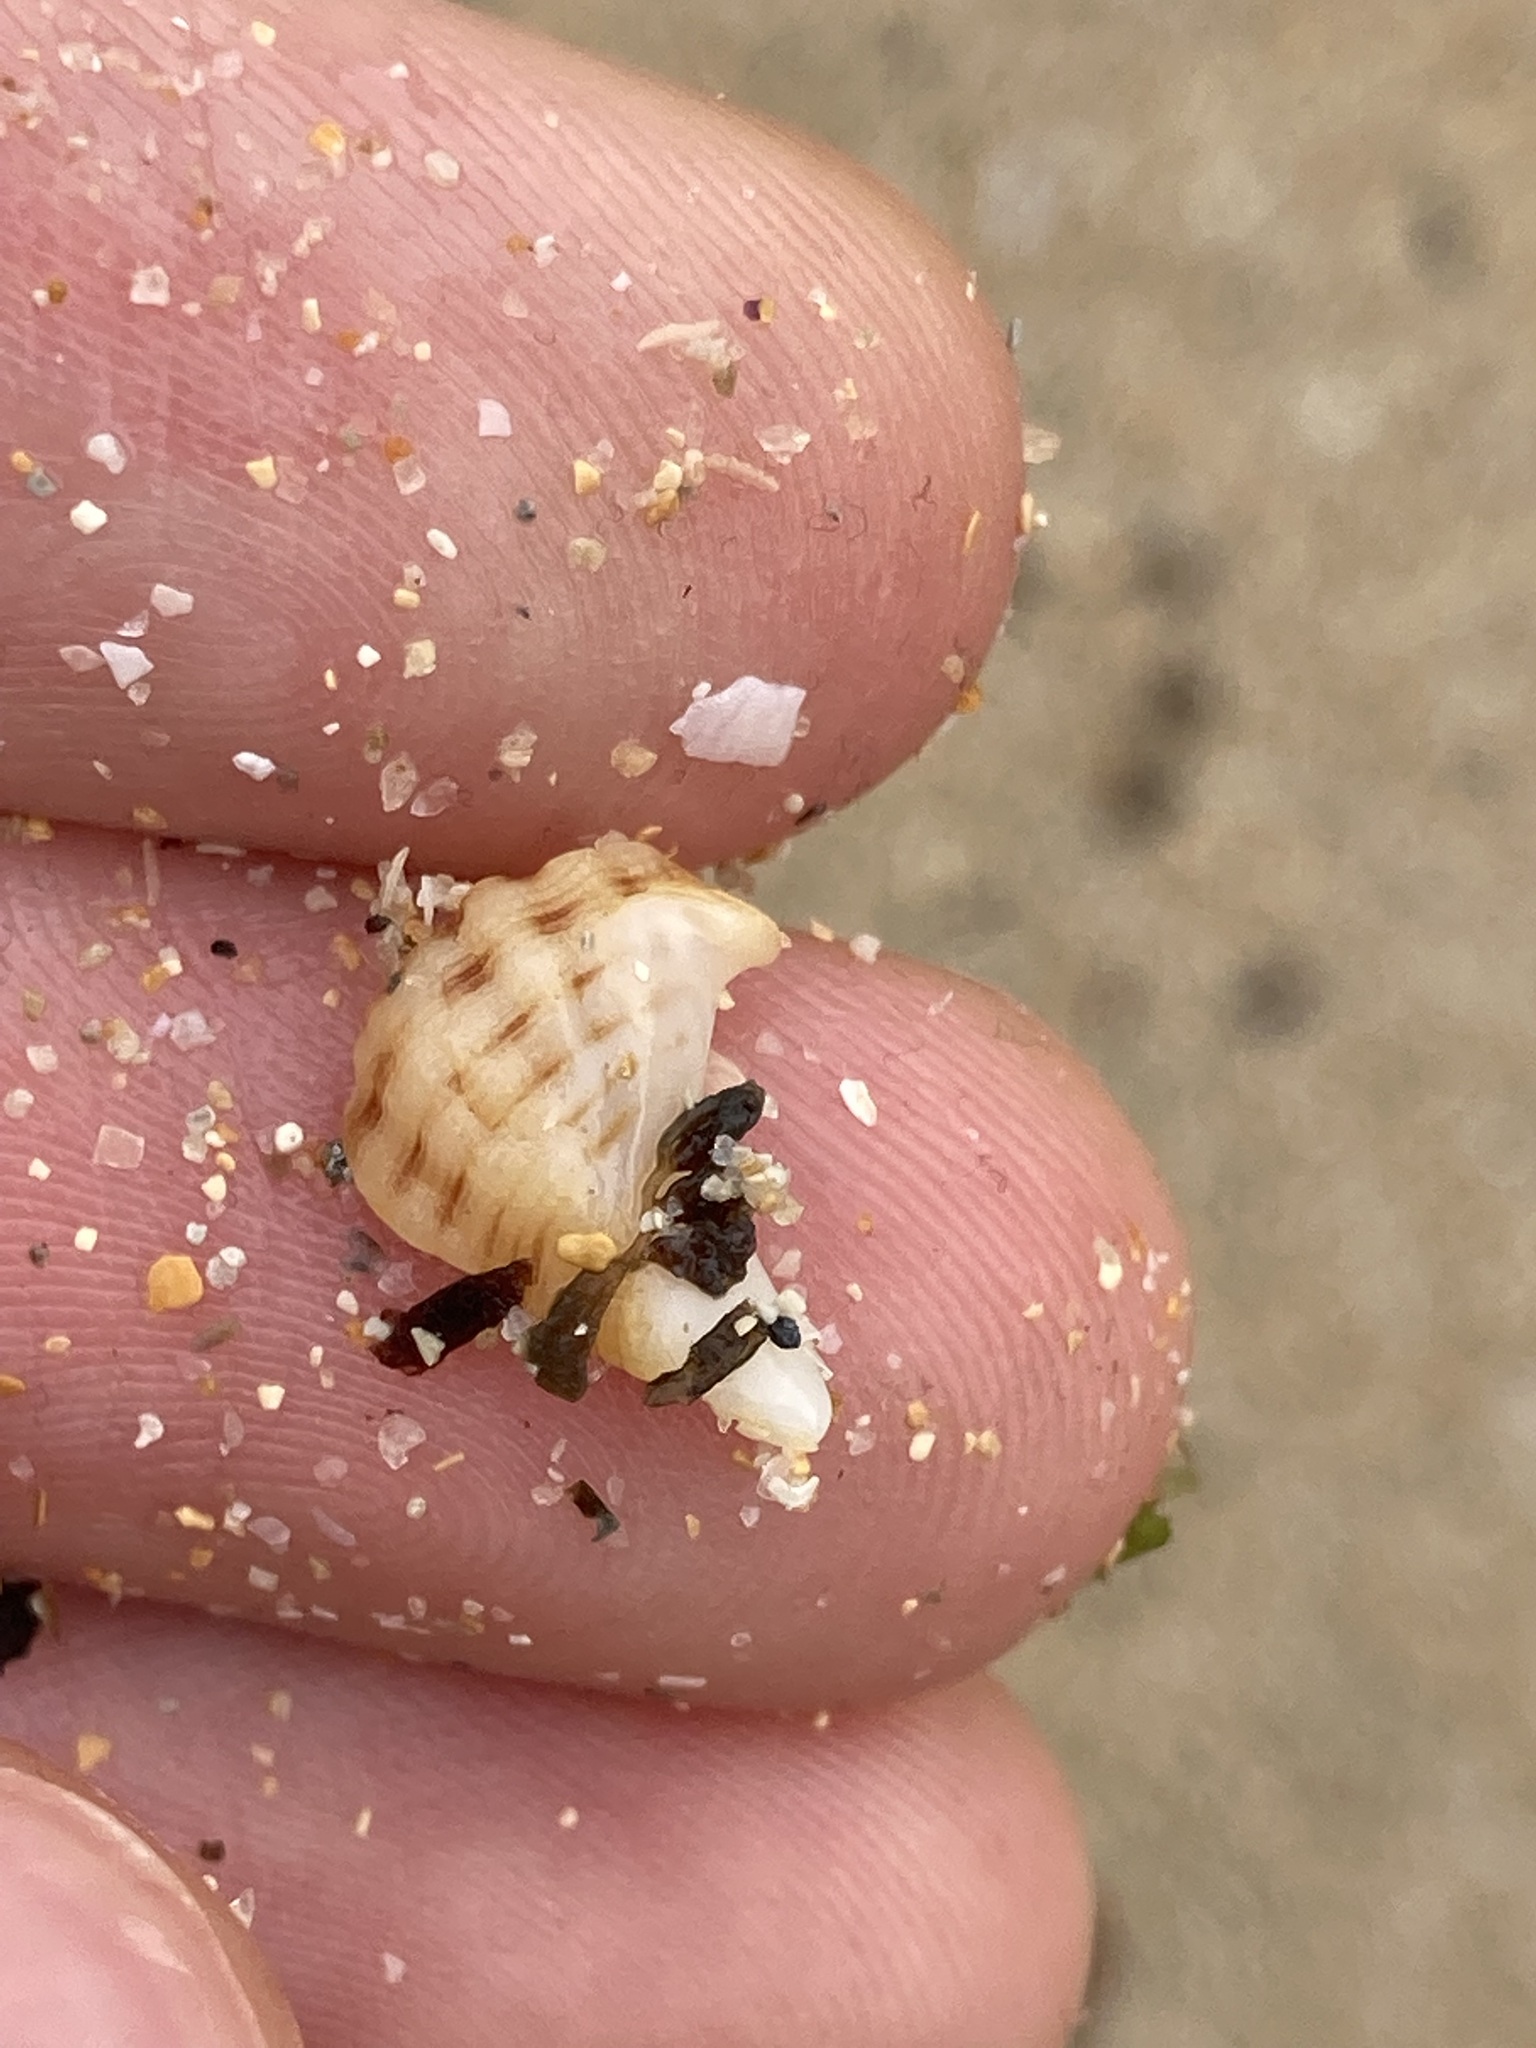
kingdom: Animalia
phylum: Mollusca
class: Gastropoda
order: Neogastropoda
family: Muricidae
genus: Agnewia
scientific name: Agnewia tritoniformis
